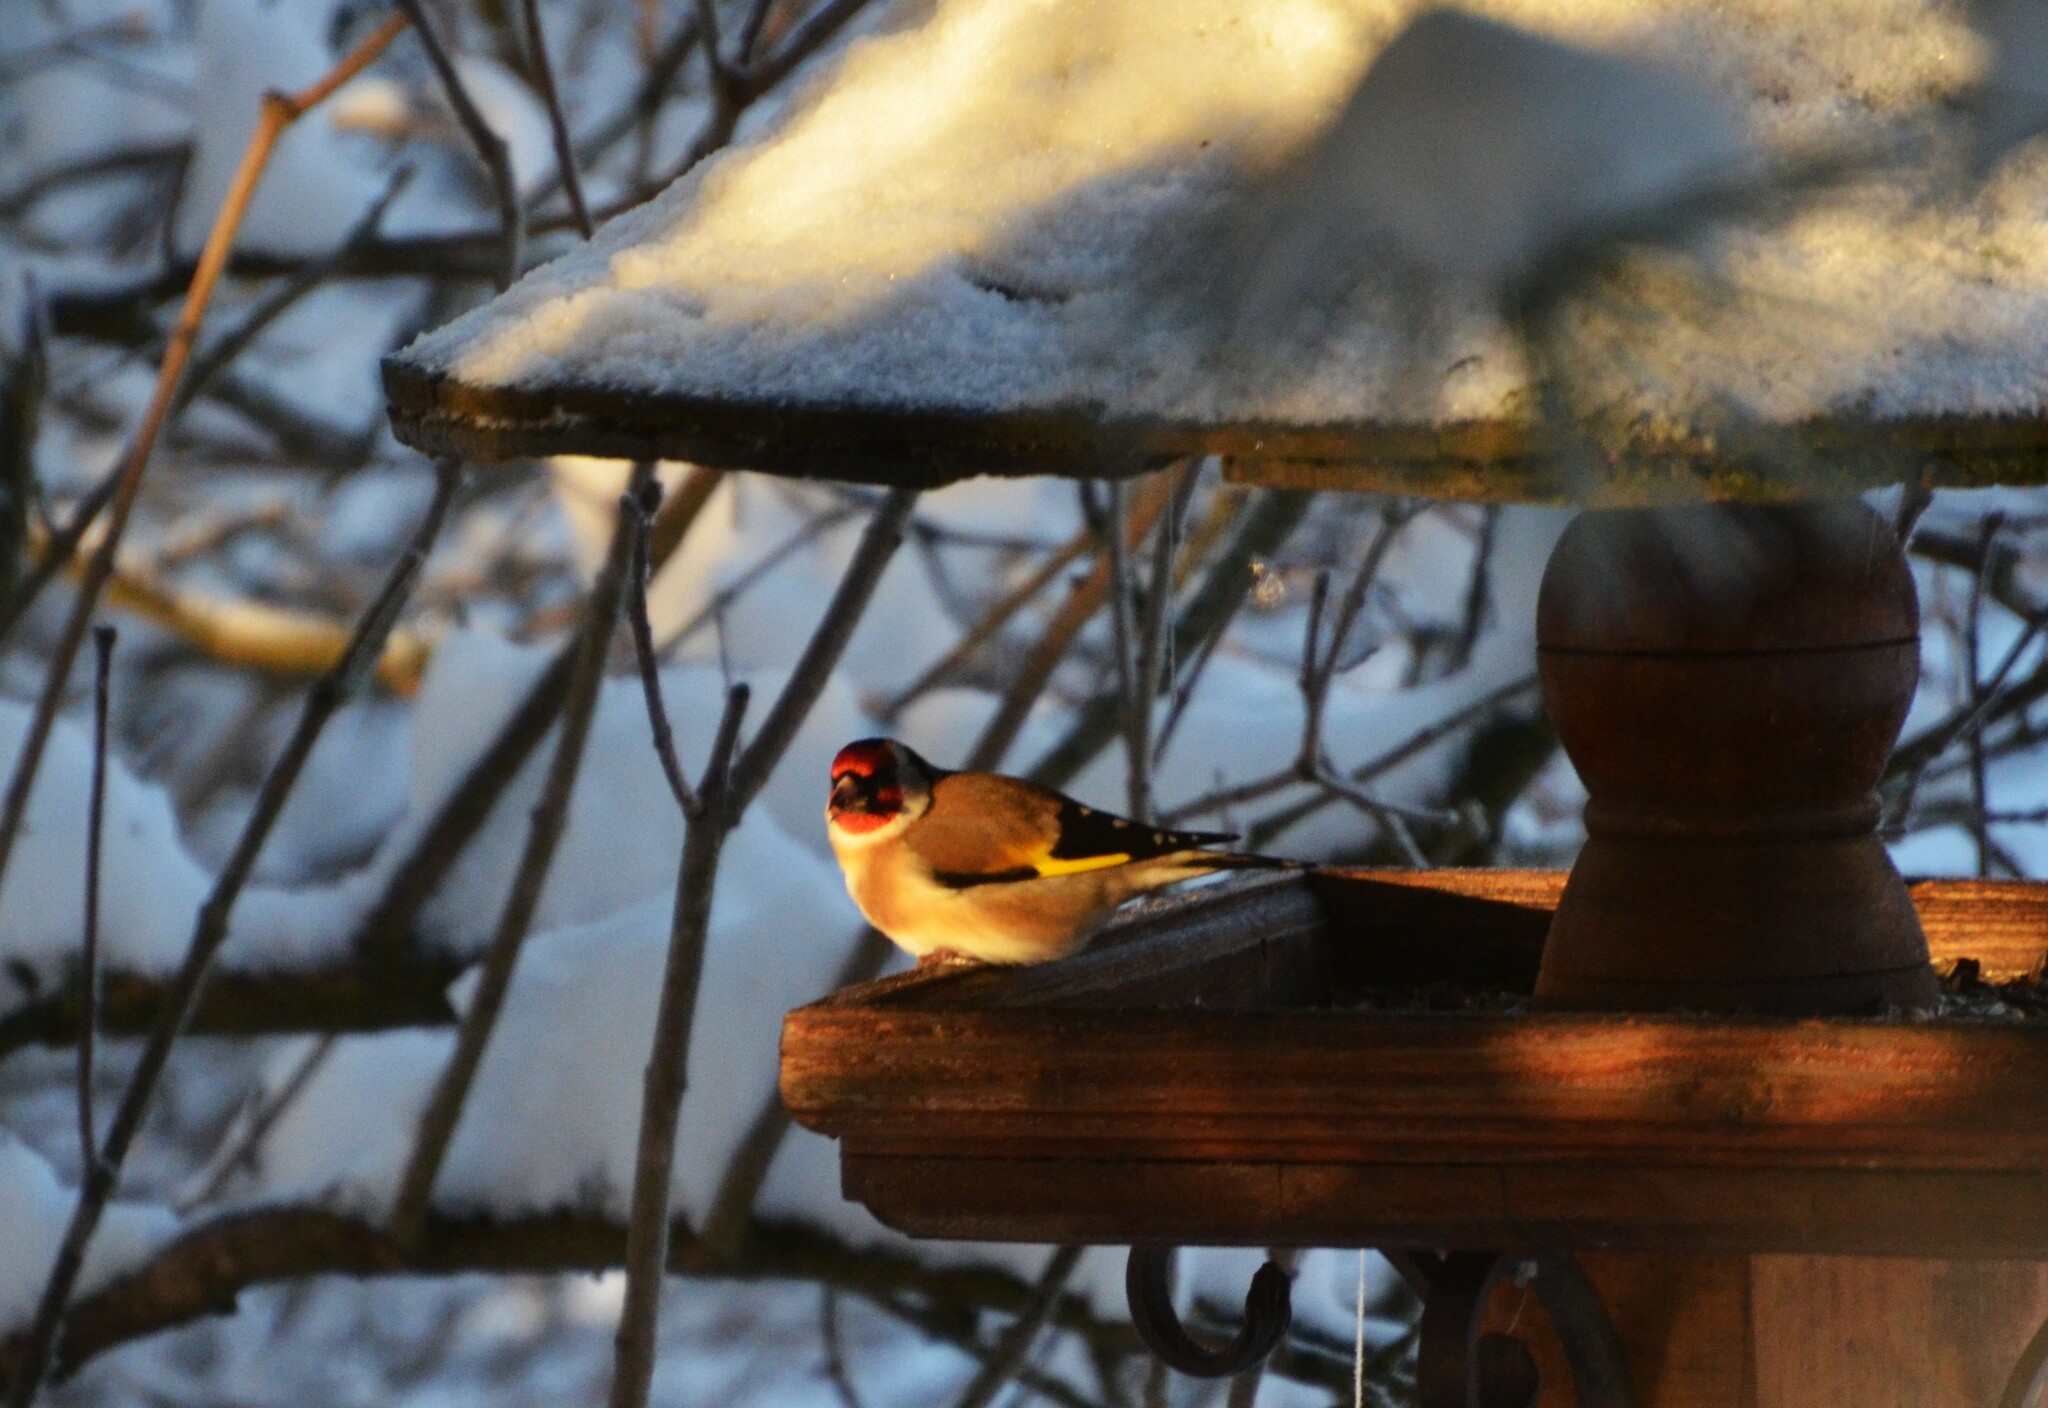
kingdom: Animalia
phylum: Chordata
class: Aves
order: Passeriformes
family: Fringillidae
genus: Carduelis
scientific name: Carduelis carduelis
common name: European goldfinch
